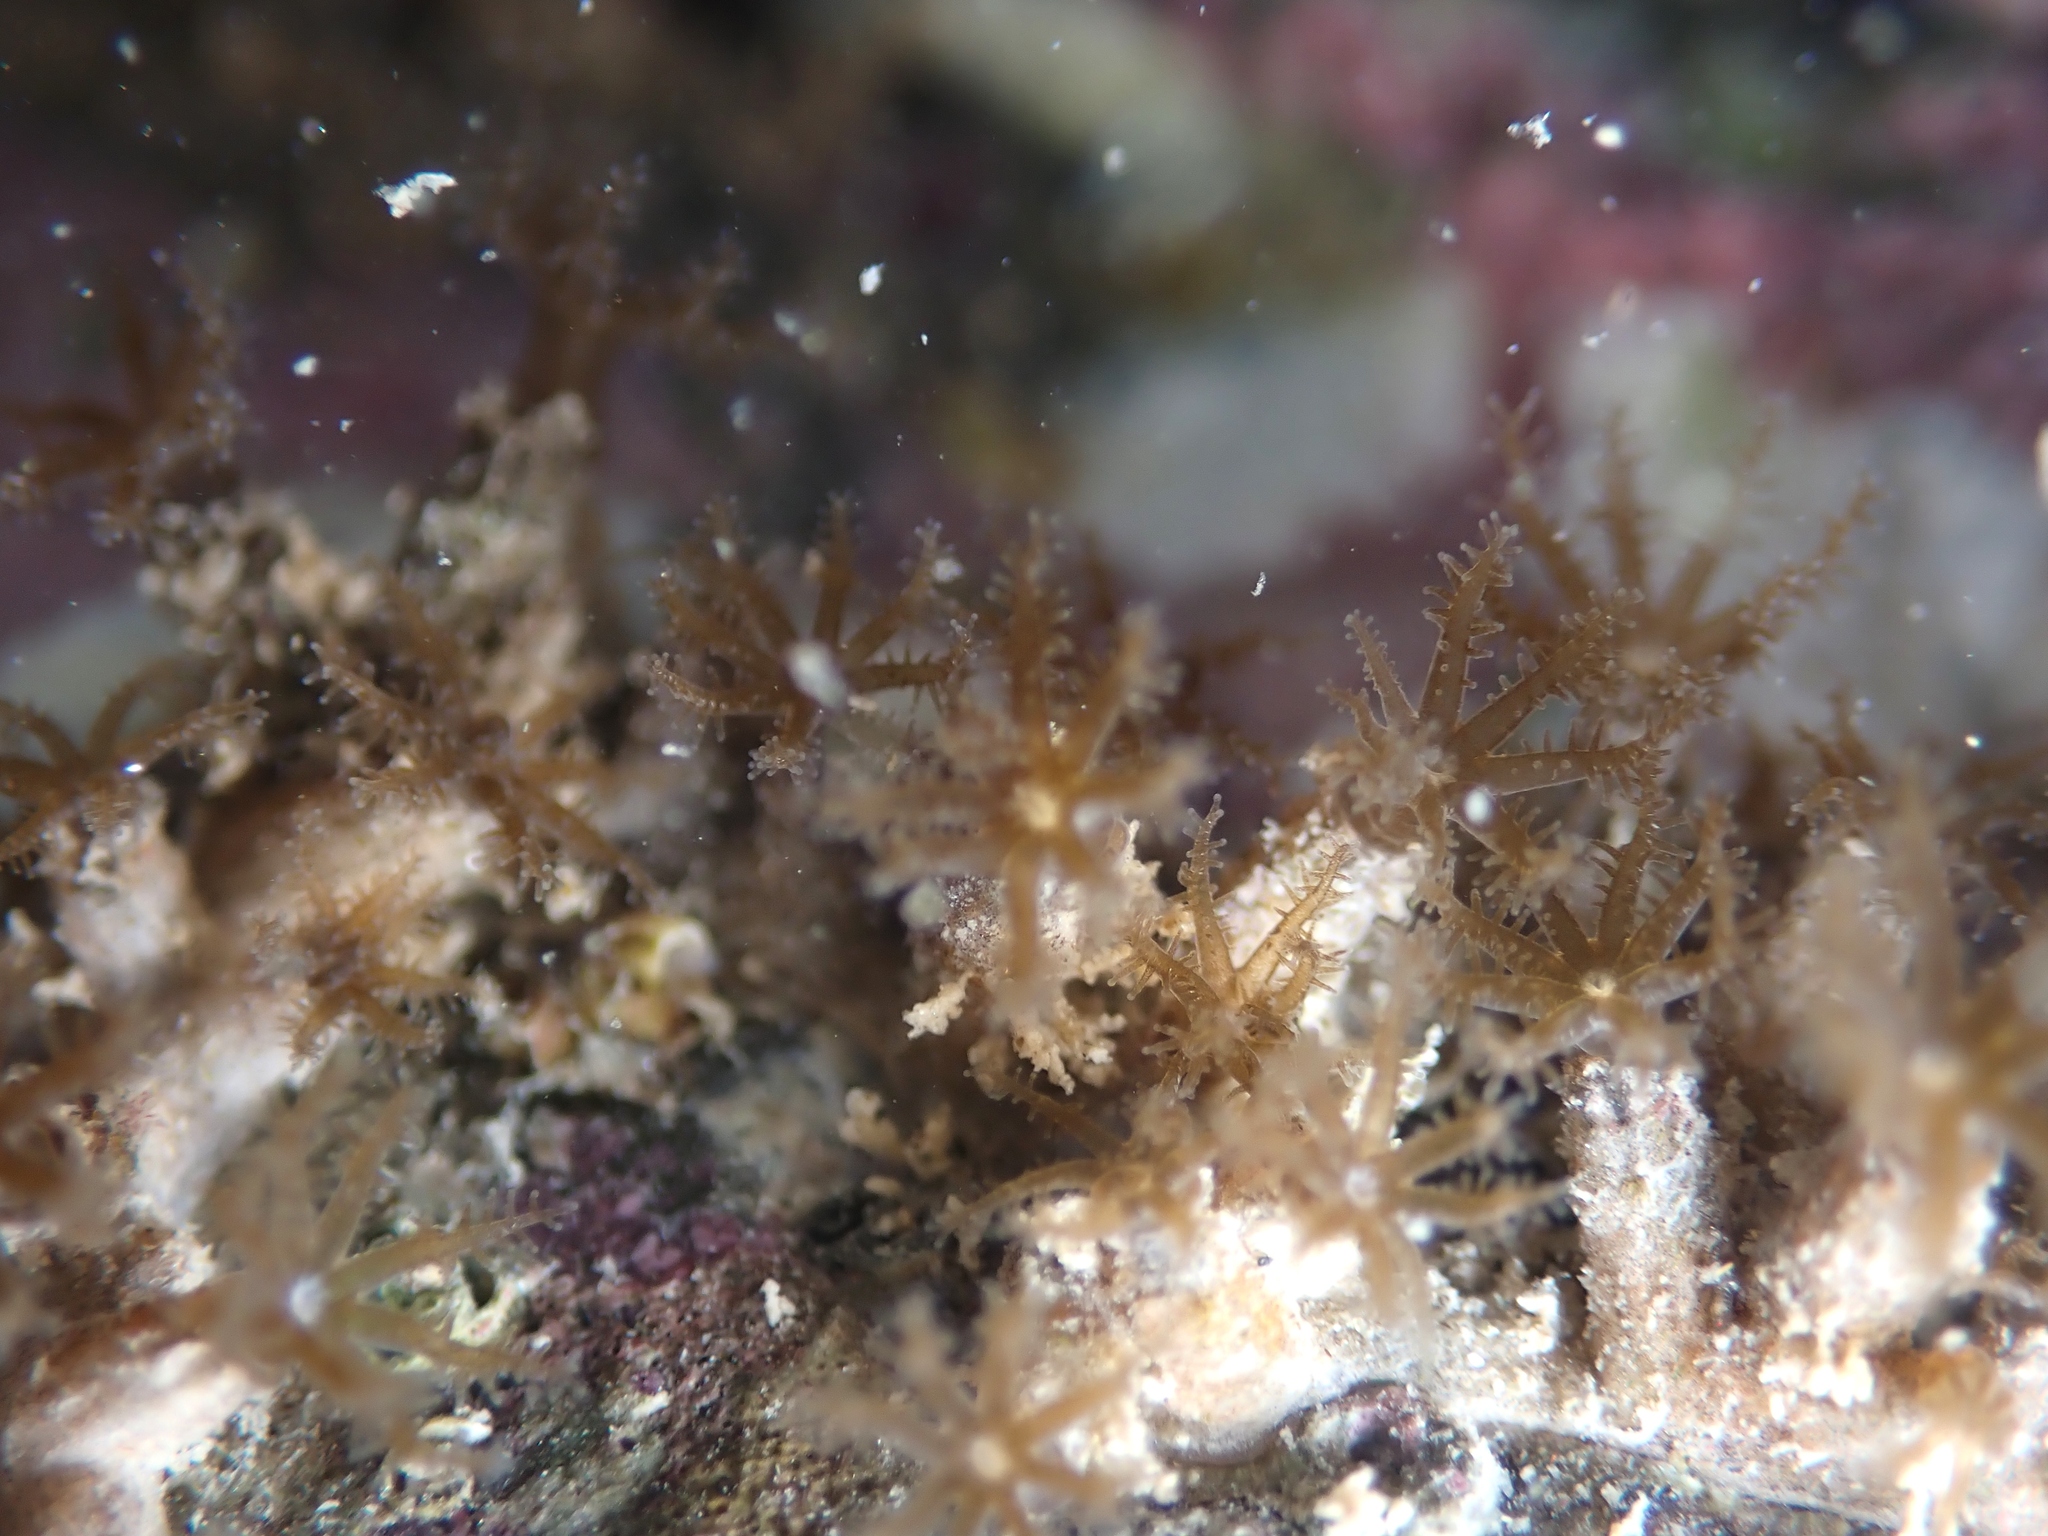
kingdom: Animalia
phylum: Cnidaria
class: Anthozoa
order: Malacalcyonacea
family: Clavulariidae
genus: Clavularia
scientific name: Clavularia novaezealandiae
